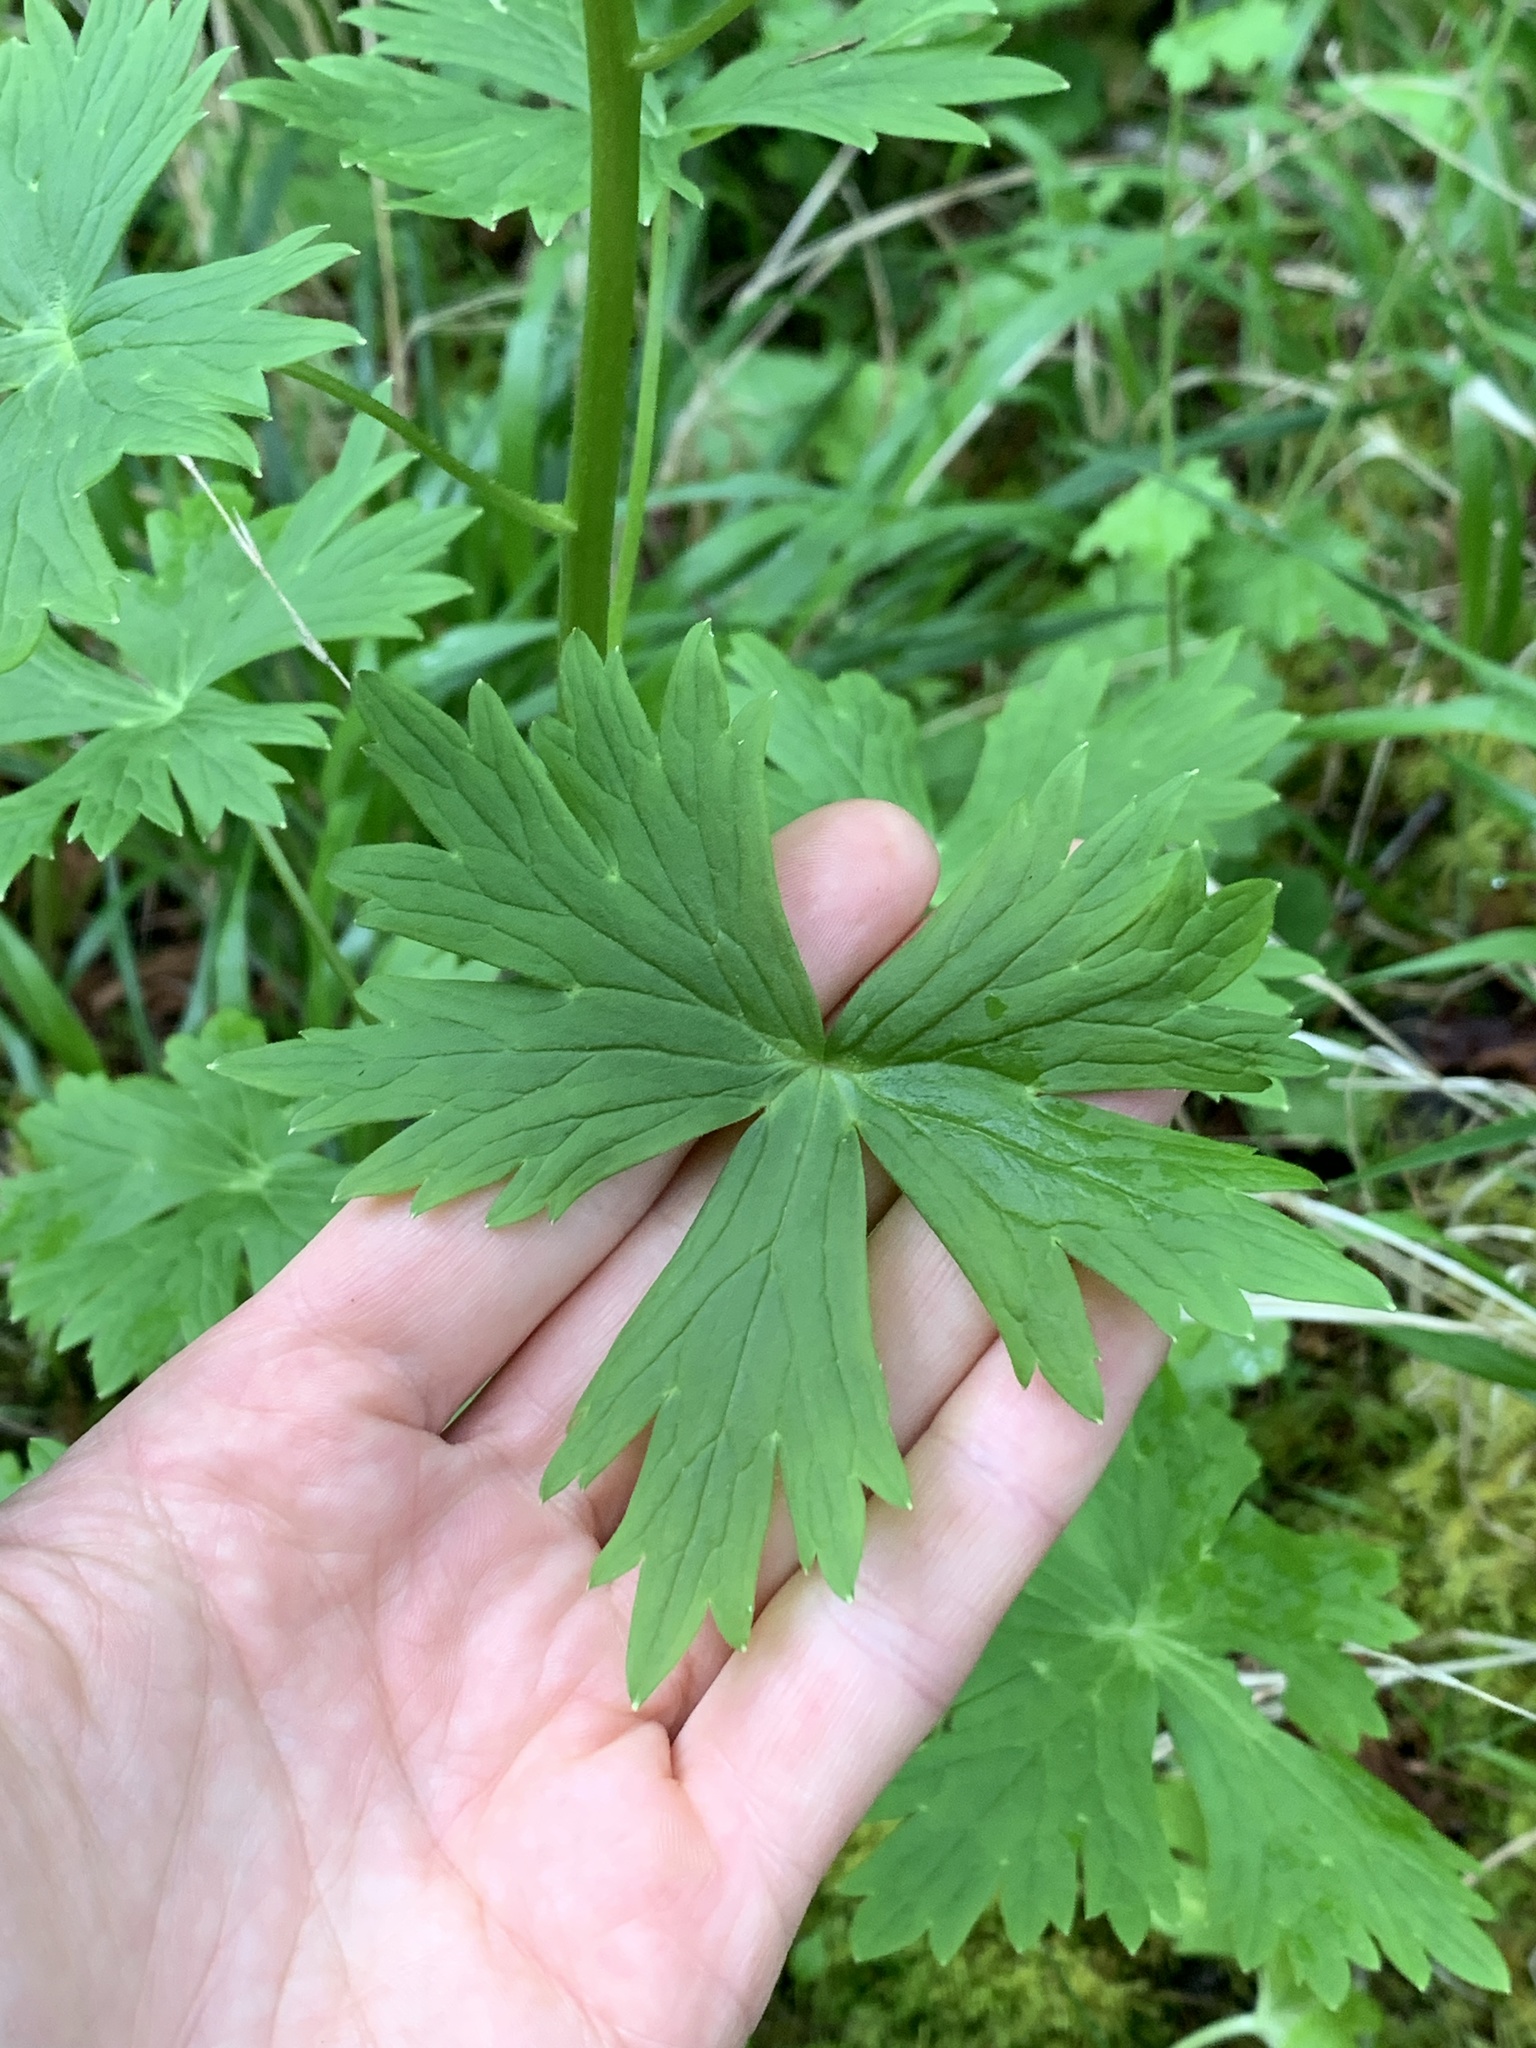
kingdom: Plantae
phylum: Tracheophyta
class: Magnoliopsida
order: Ranunculales
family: Ranunculaceae
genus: Delphinium
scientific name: Delphinium trolliifolium
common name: Cow-poison
